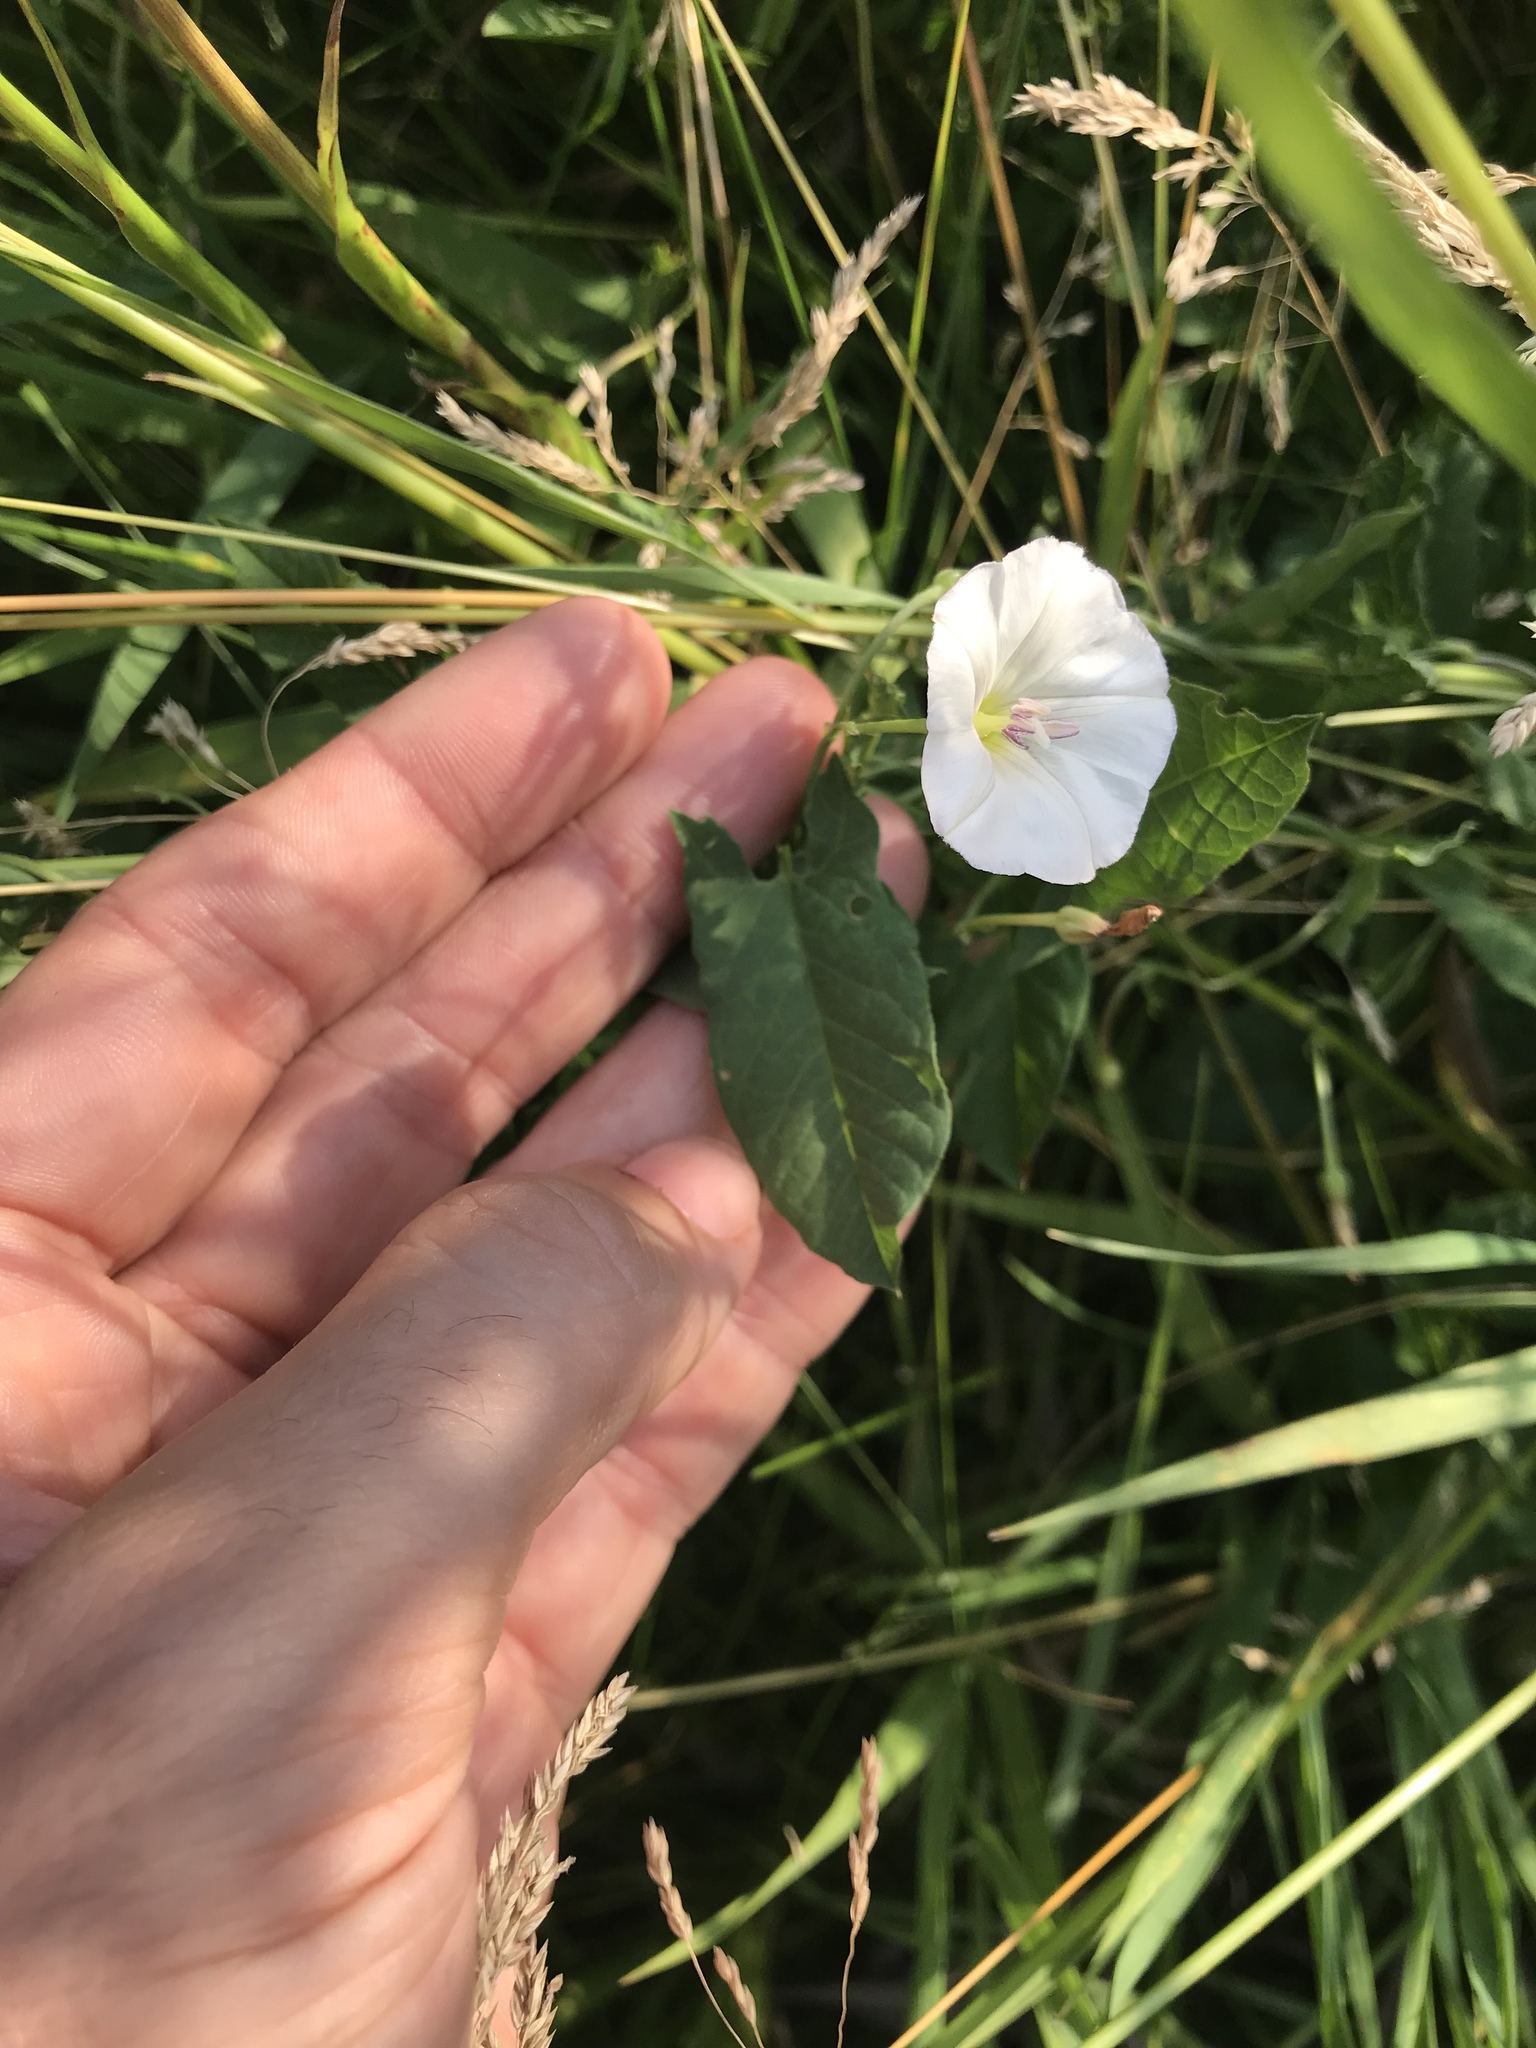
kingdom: Plantae
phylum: Tracheophyta
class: Magnoliopsida
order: Solanales
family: Convolvulaceae
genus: Convolvulus
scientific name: Convolvulus arvensis
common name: Field bindweed
